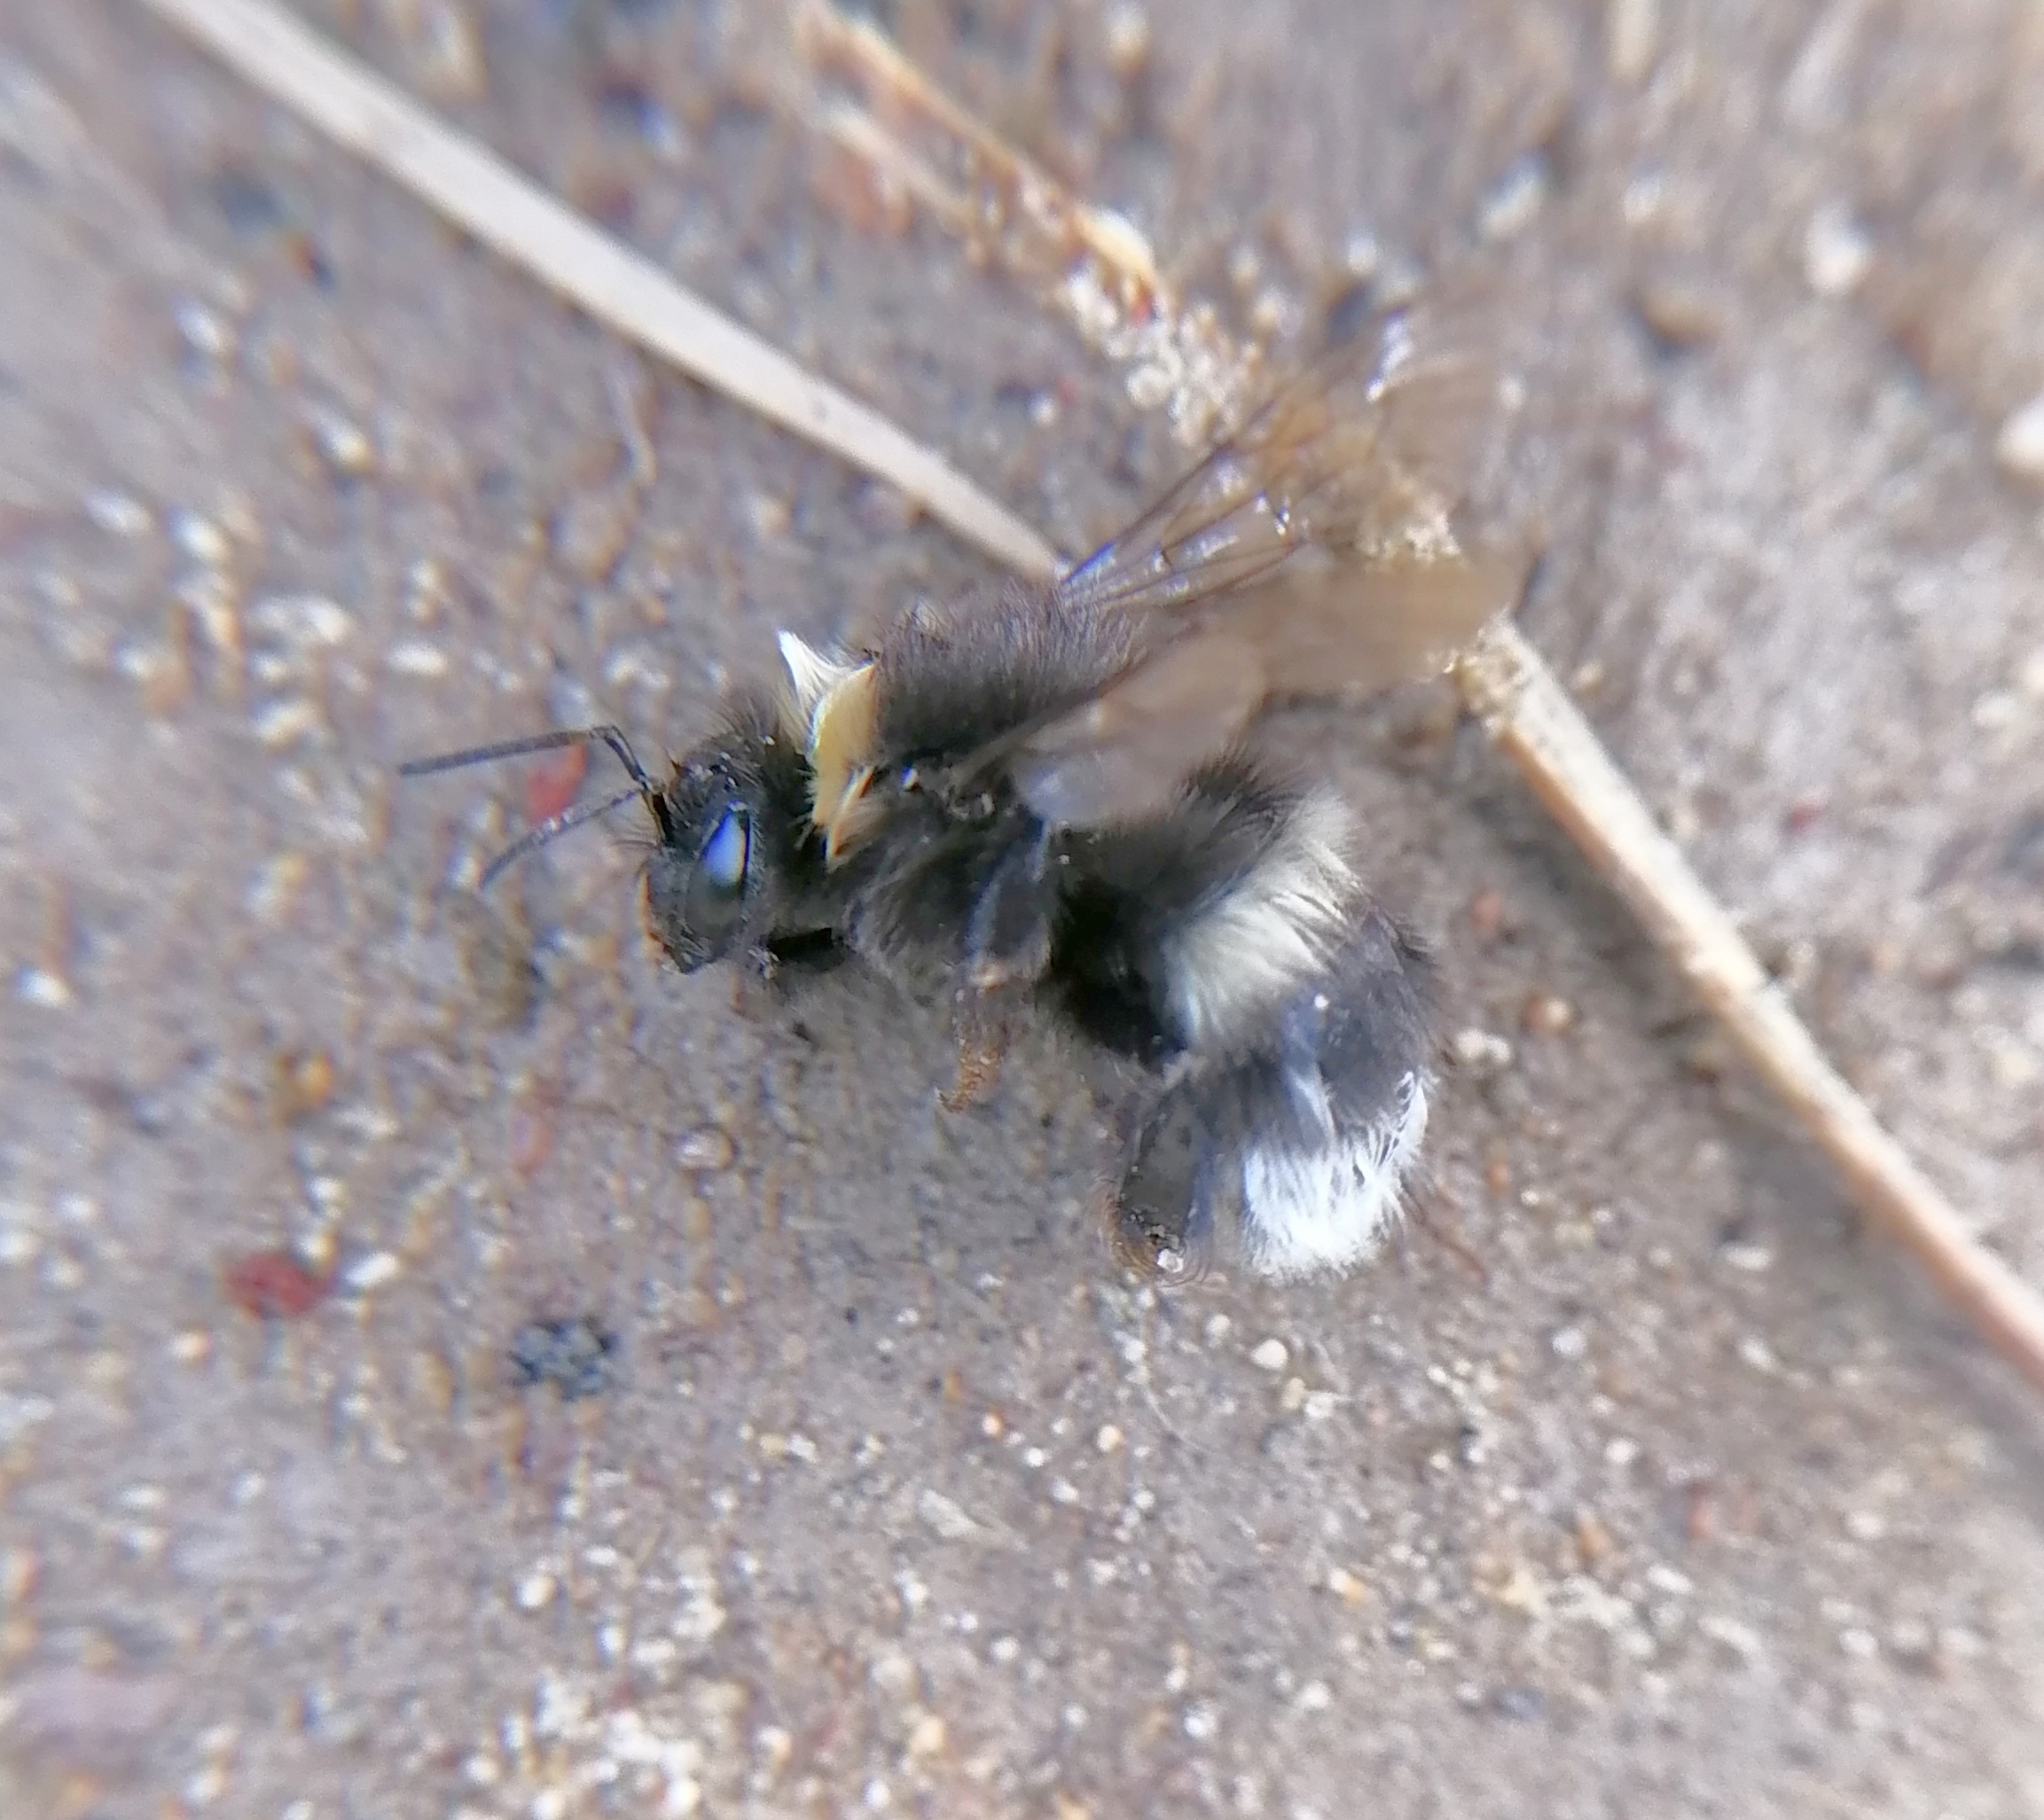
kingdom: Animalia
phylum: Arthropoda
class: Insecta
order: Hymenoptera
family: Apidae
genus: Bombus
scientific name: Bombus
